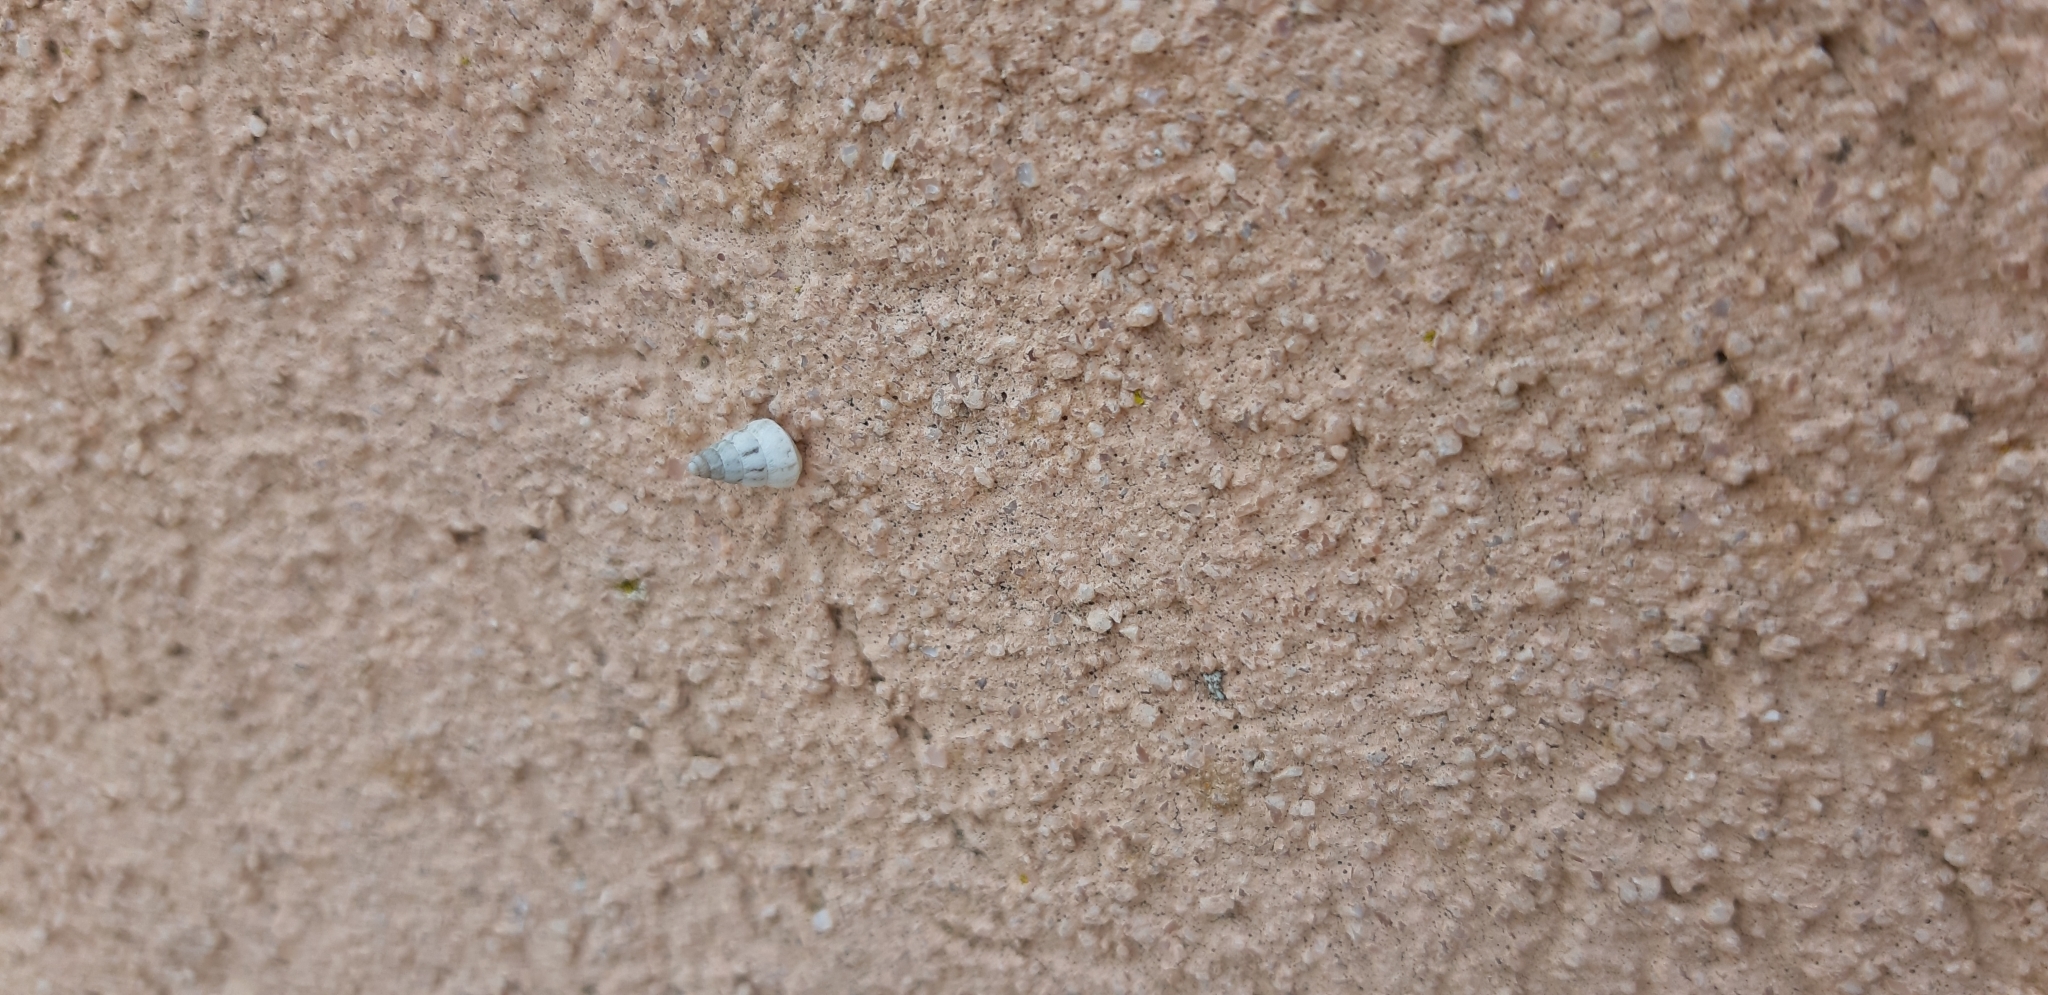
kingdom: Animalia
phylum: Mollusca
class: Gastropoda
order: Stylommatophora
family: Geomitridae
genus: Cochlicella
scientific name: Cochlicella barbara
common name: Potbellied helicellid
